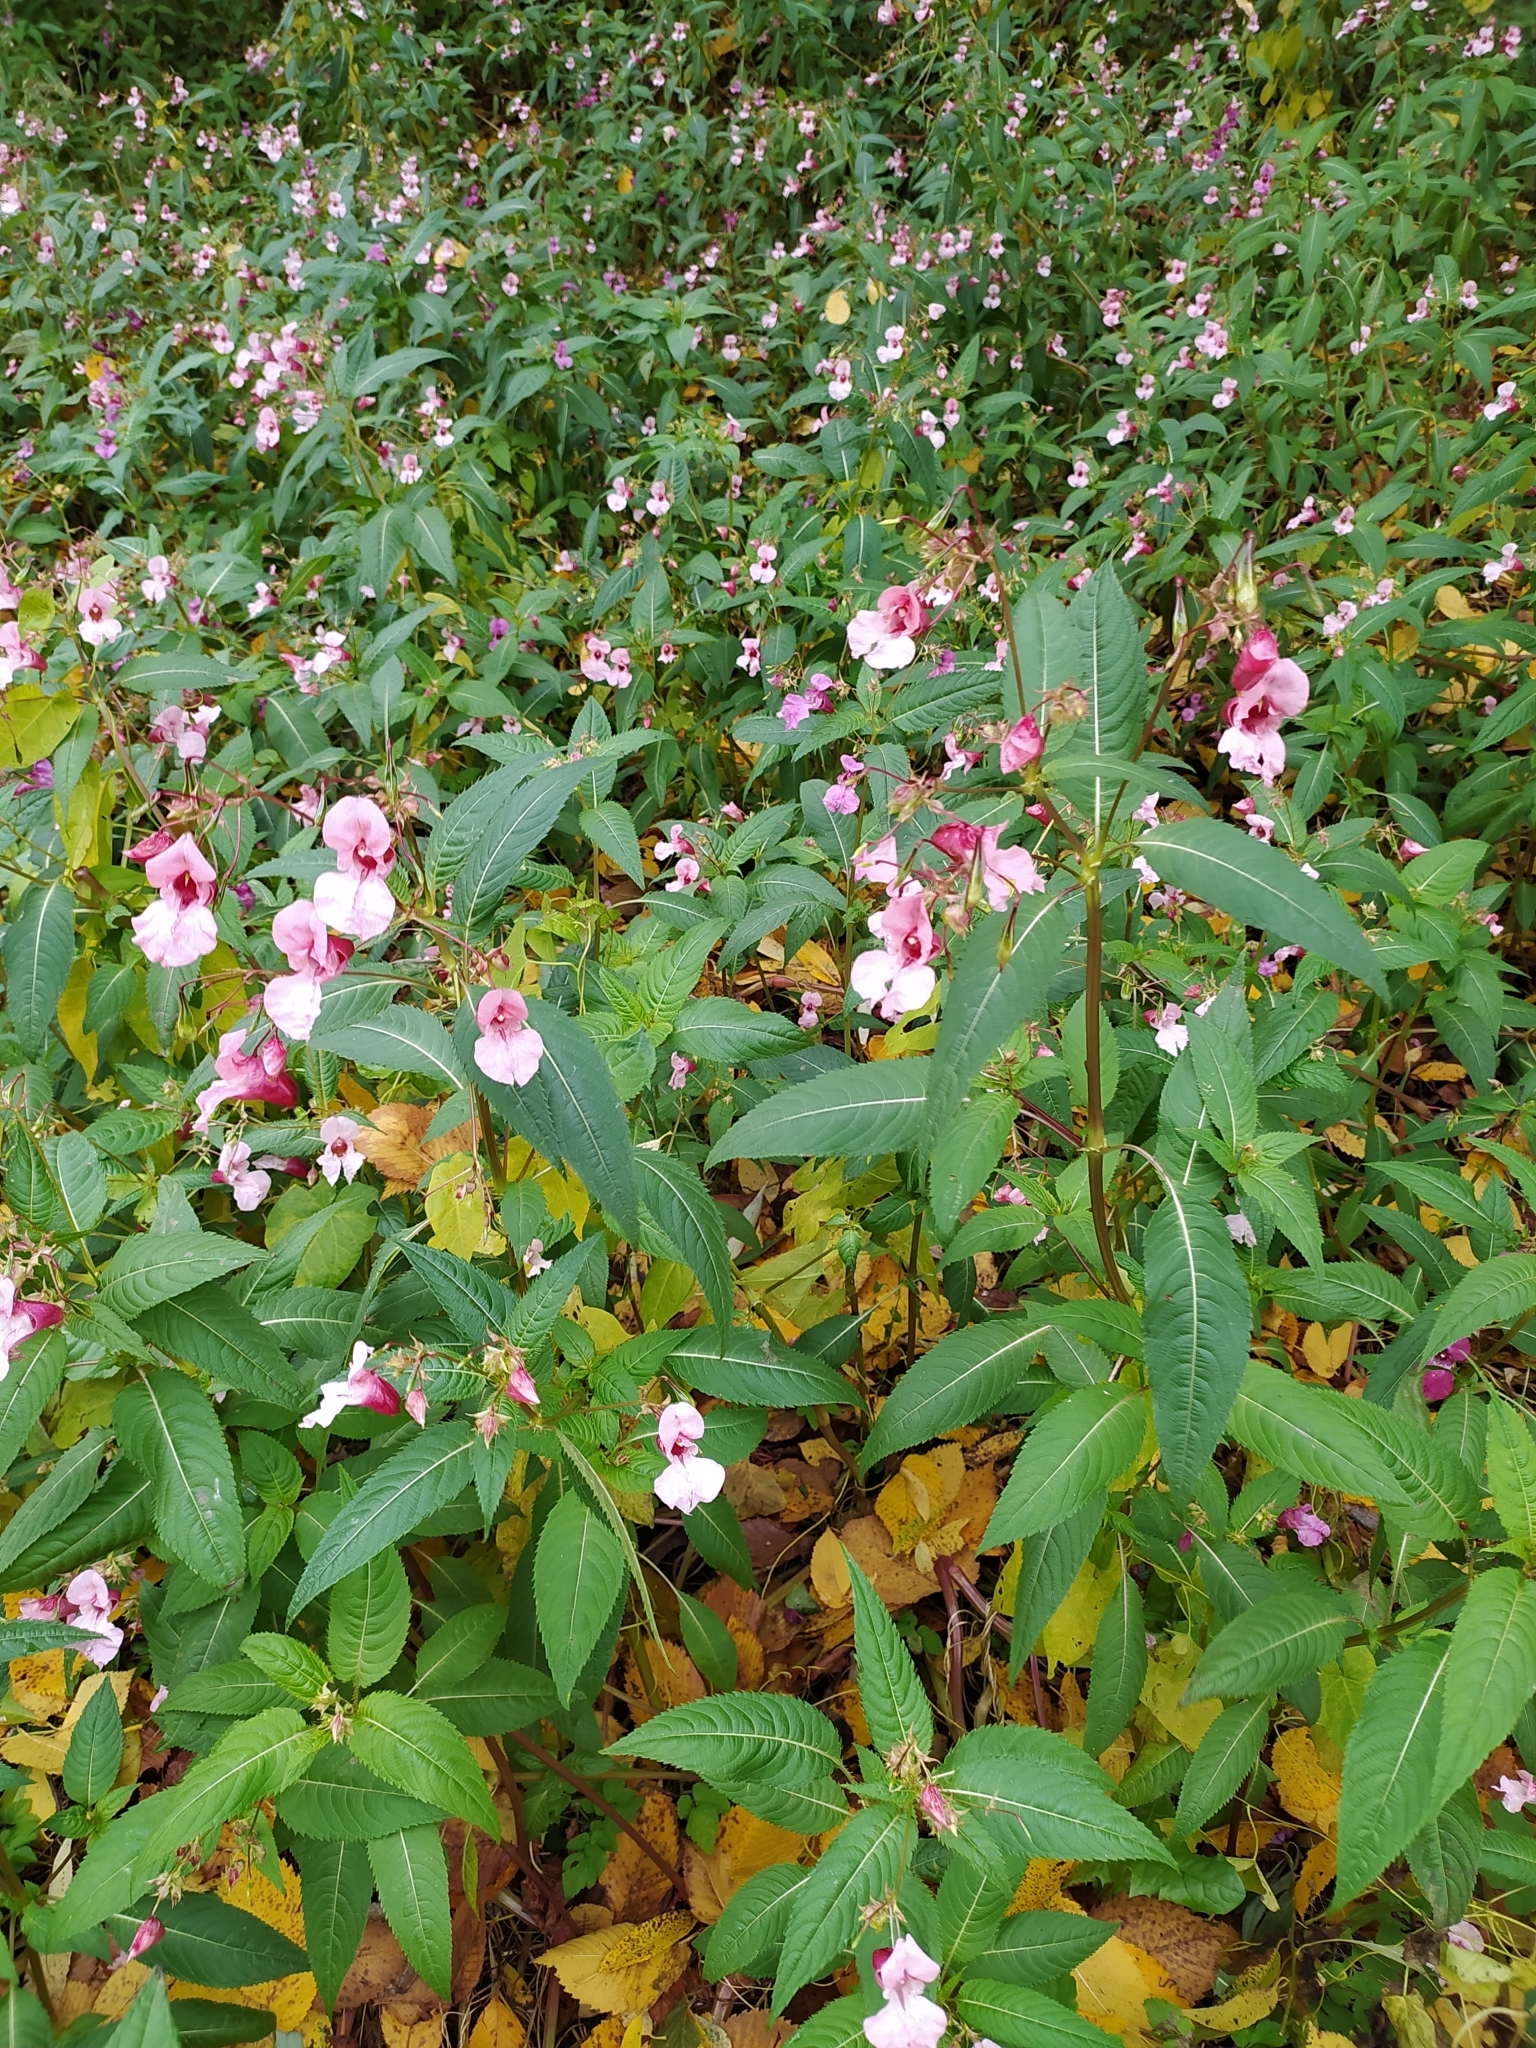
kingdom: Plantae
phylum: Tracheophyta
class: Magnoliopsida
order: Ericales
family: Balsaminaceae
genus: Impatiens
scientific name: Impatiens glandulifera
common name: Himalayan balsam
